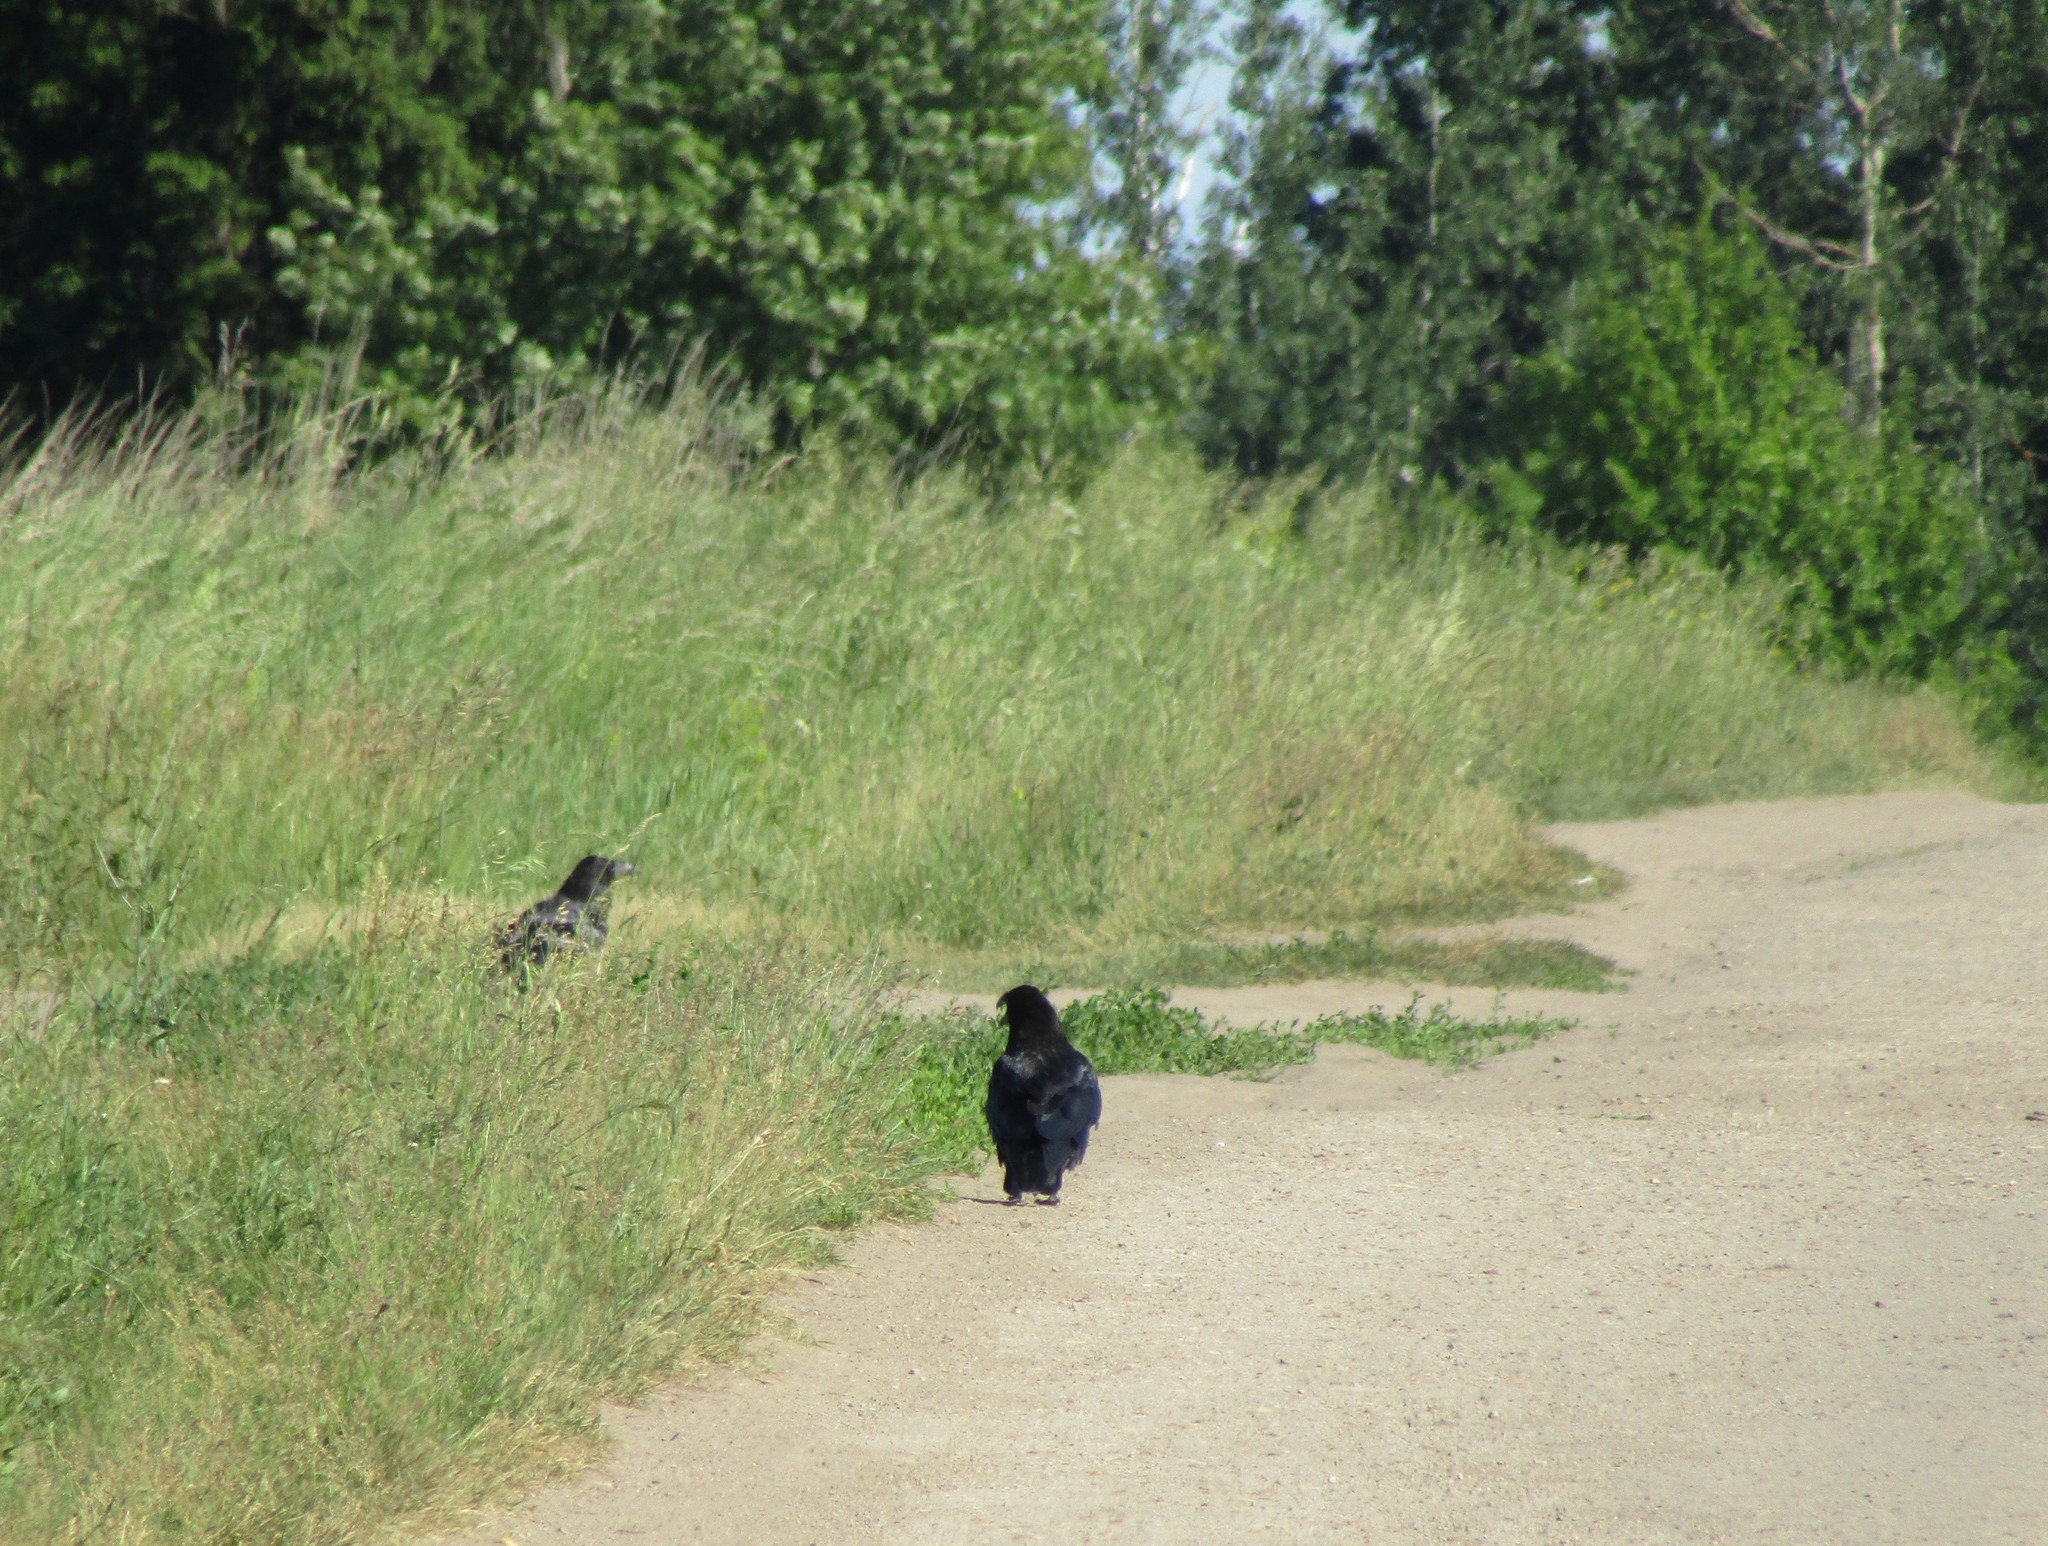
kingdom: Animalia
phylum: Chordata
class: Aves
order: Passeriformes
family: Corvidae
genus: Corvus
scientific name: Corvus corax
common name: Common raven
